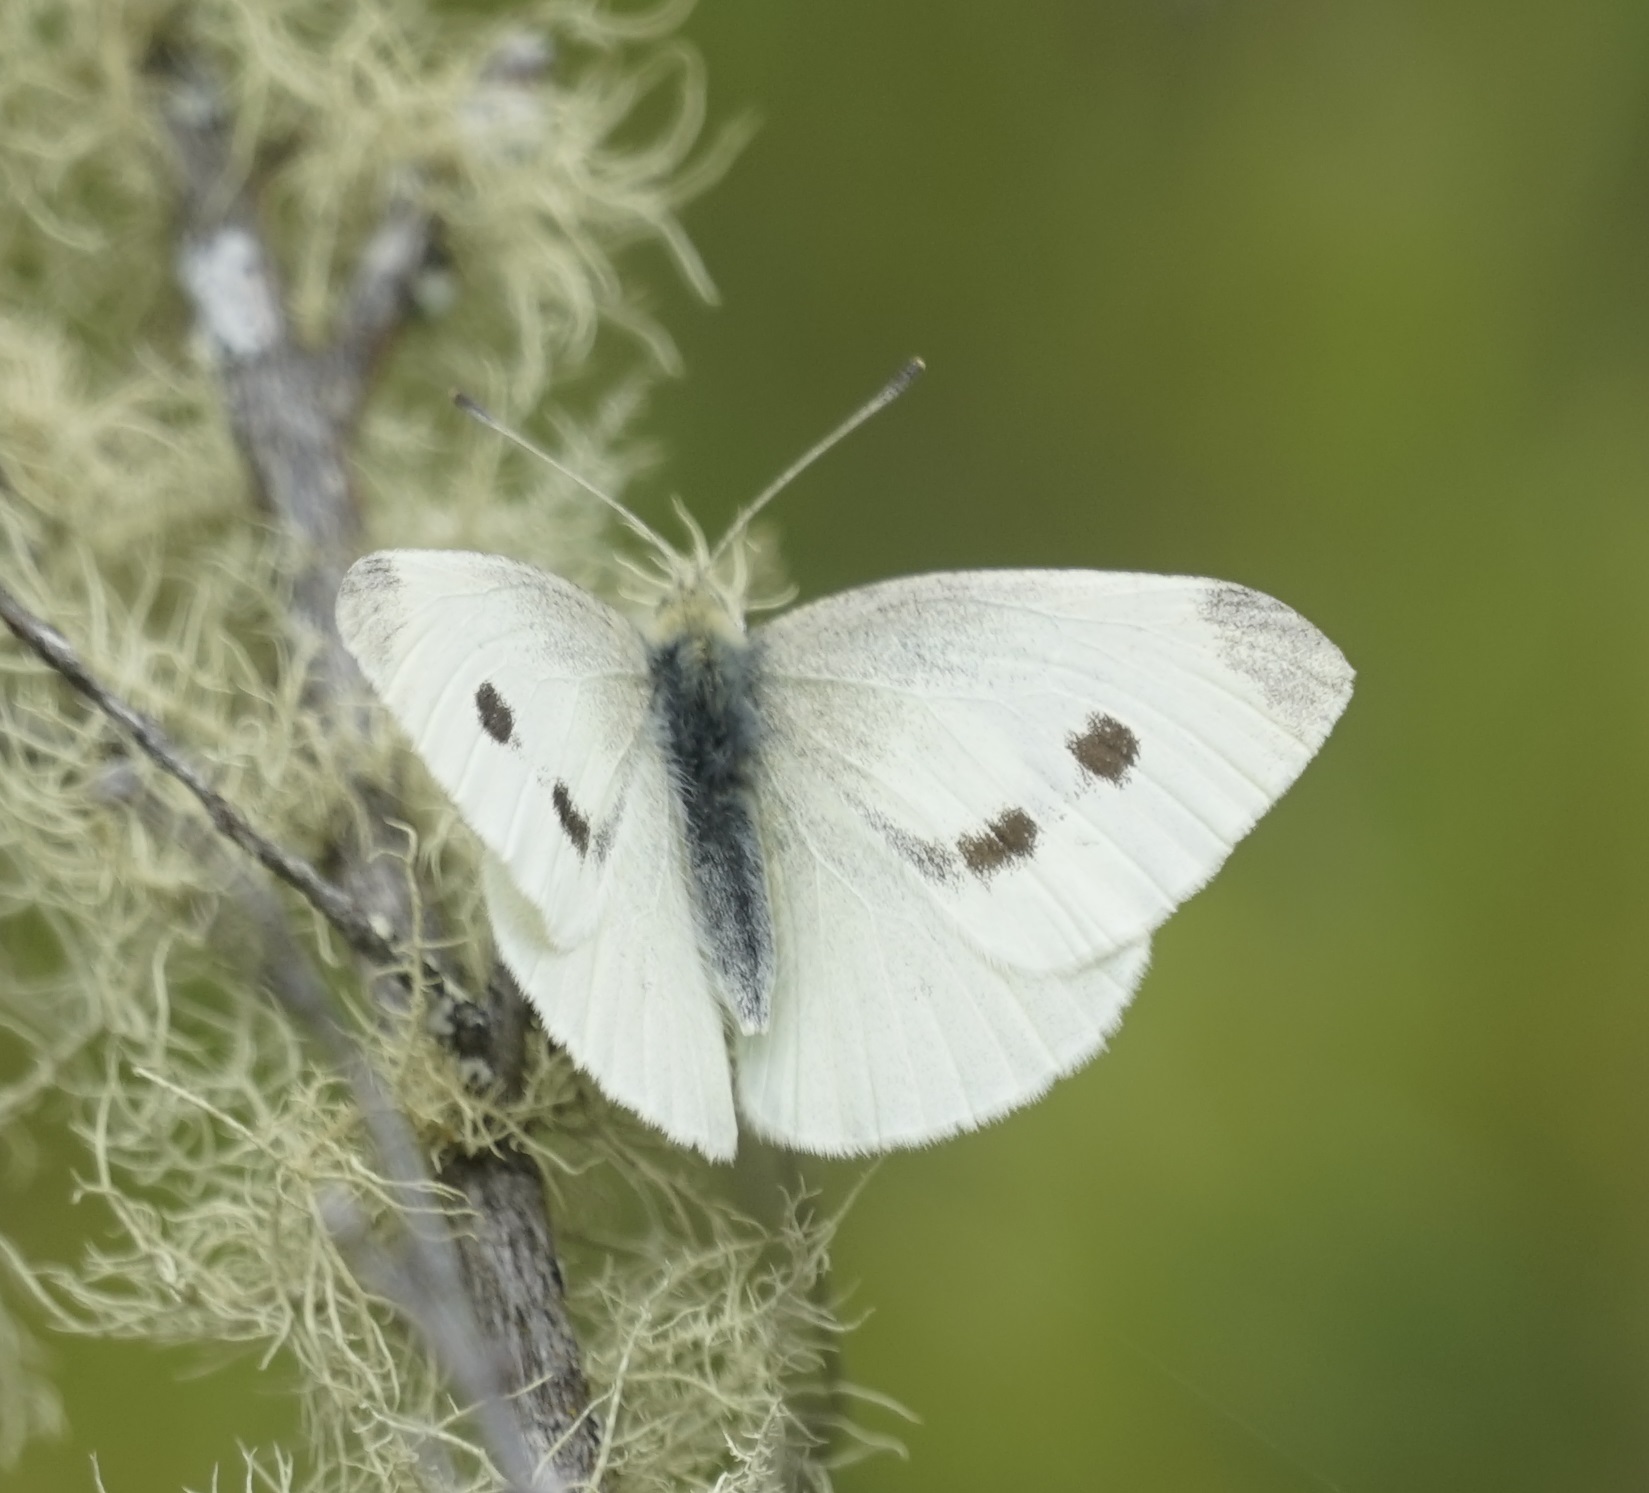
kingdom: Animalia
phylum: Arthropoda
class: Insecta
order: Lepidoptera
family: Pieridae
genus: Pieris
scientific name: Pieris rapae
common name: Small white
